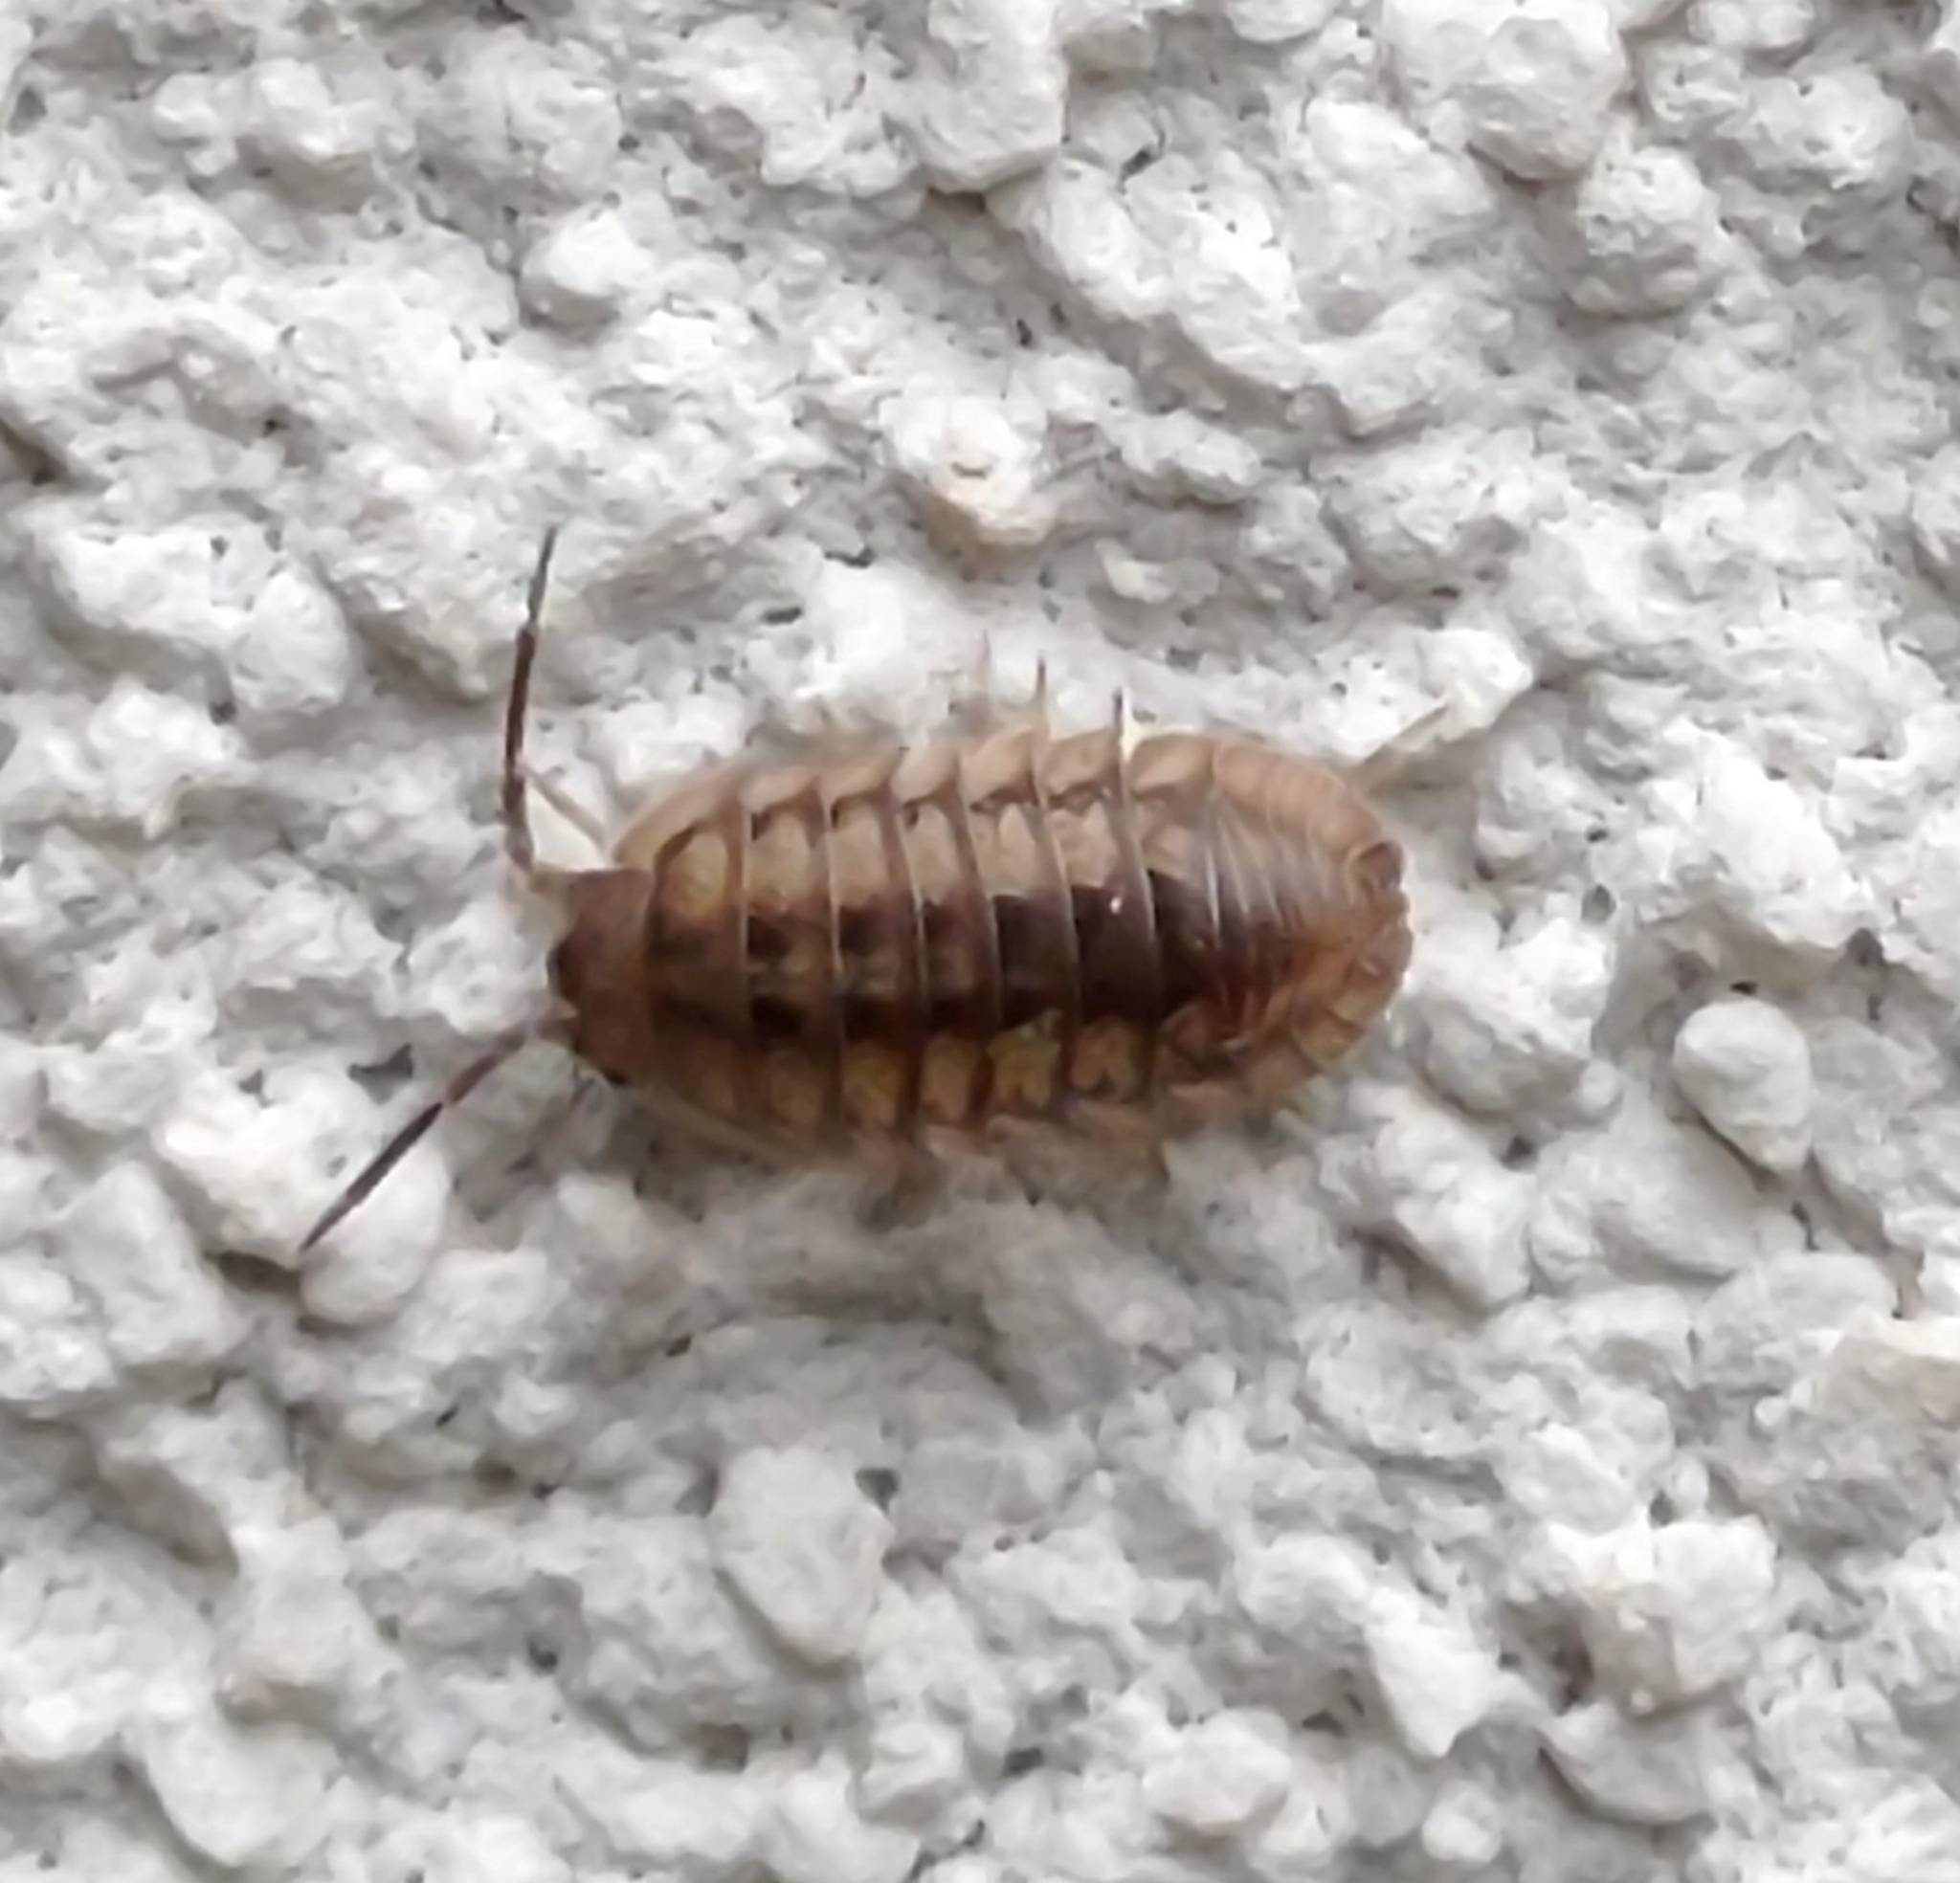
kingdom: Animalia
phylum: Arthropoda
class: Malacostraca
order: Isopoda
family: Armadillidiidae
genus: Armadillidium
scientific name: Armadillidium nasatum
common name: Isopod
